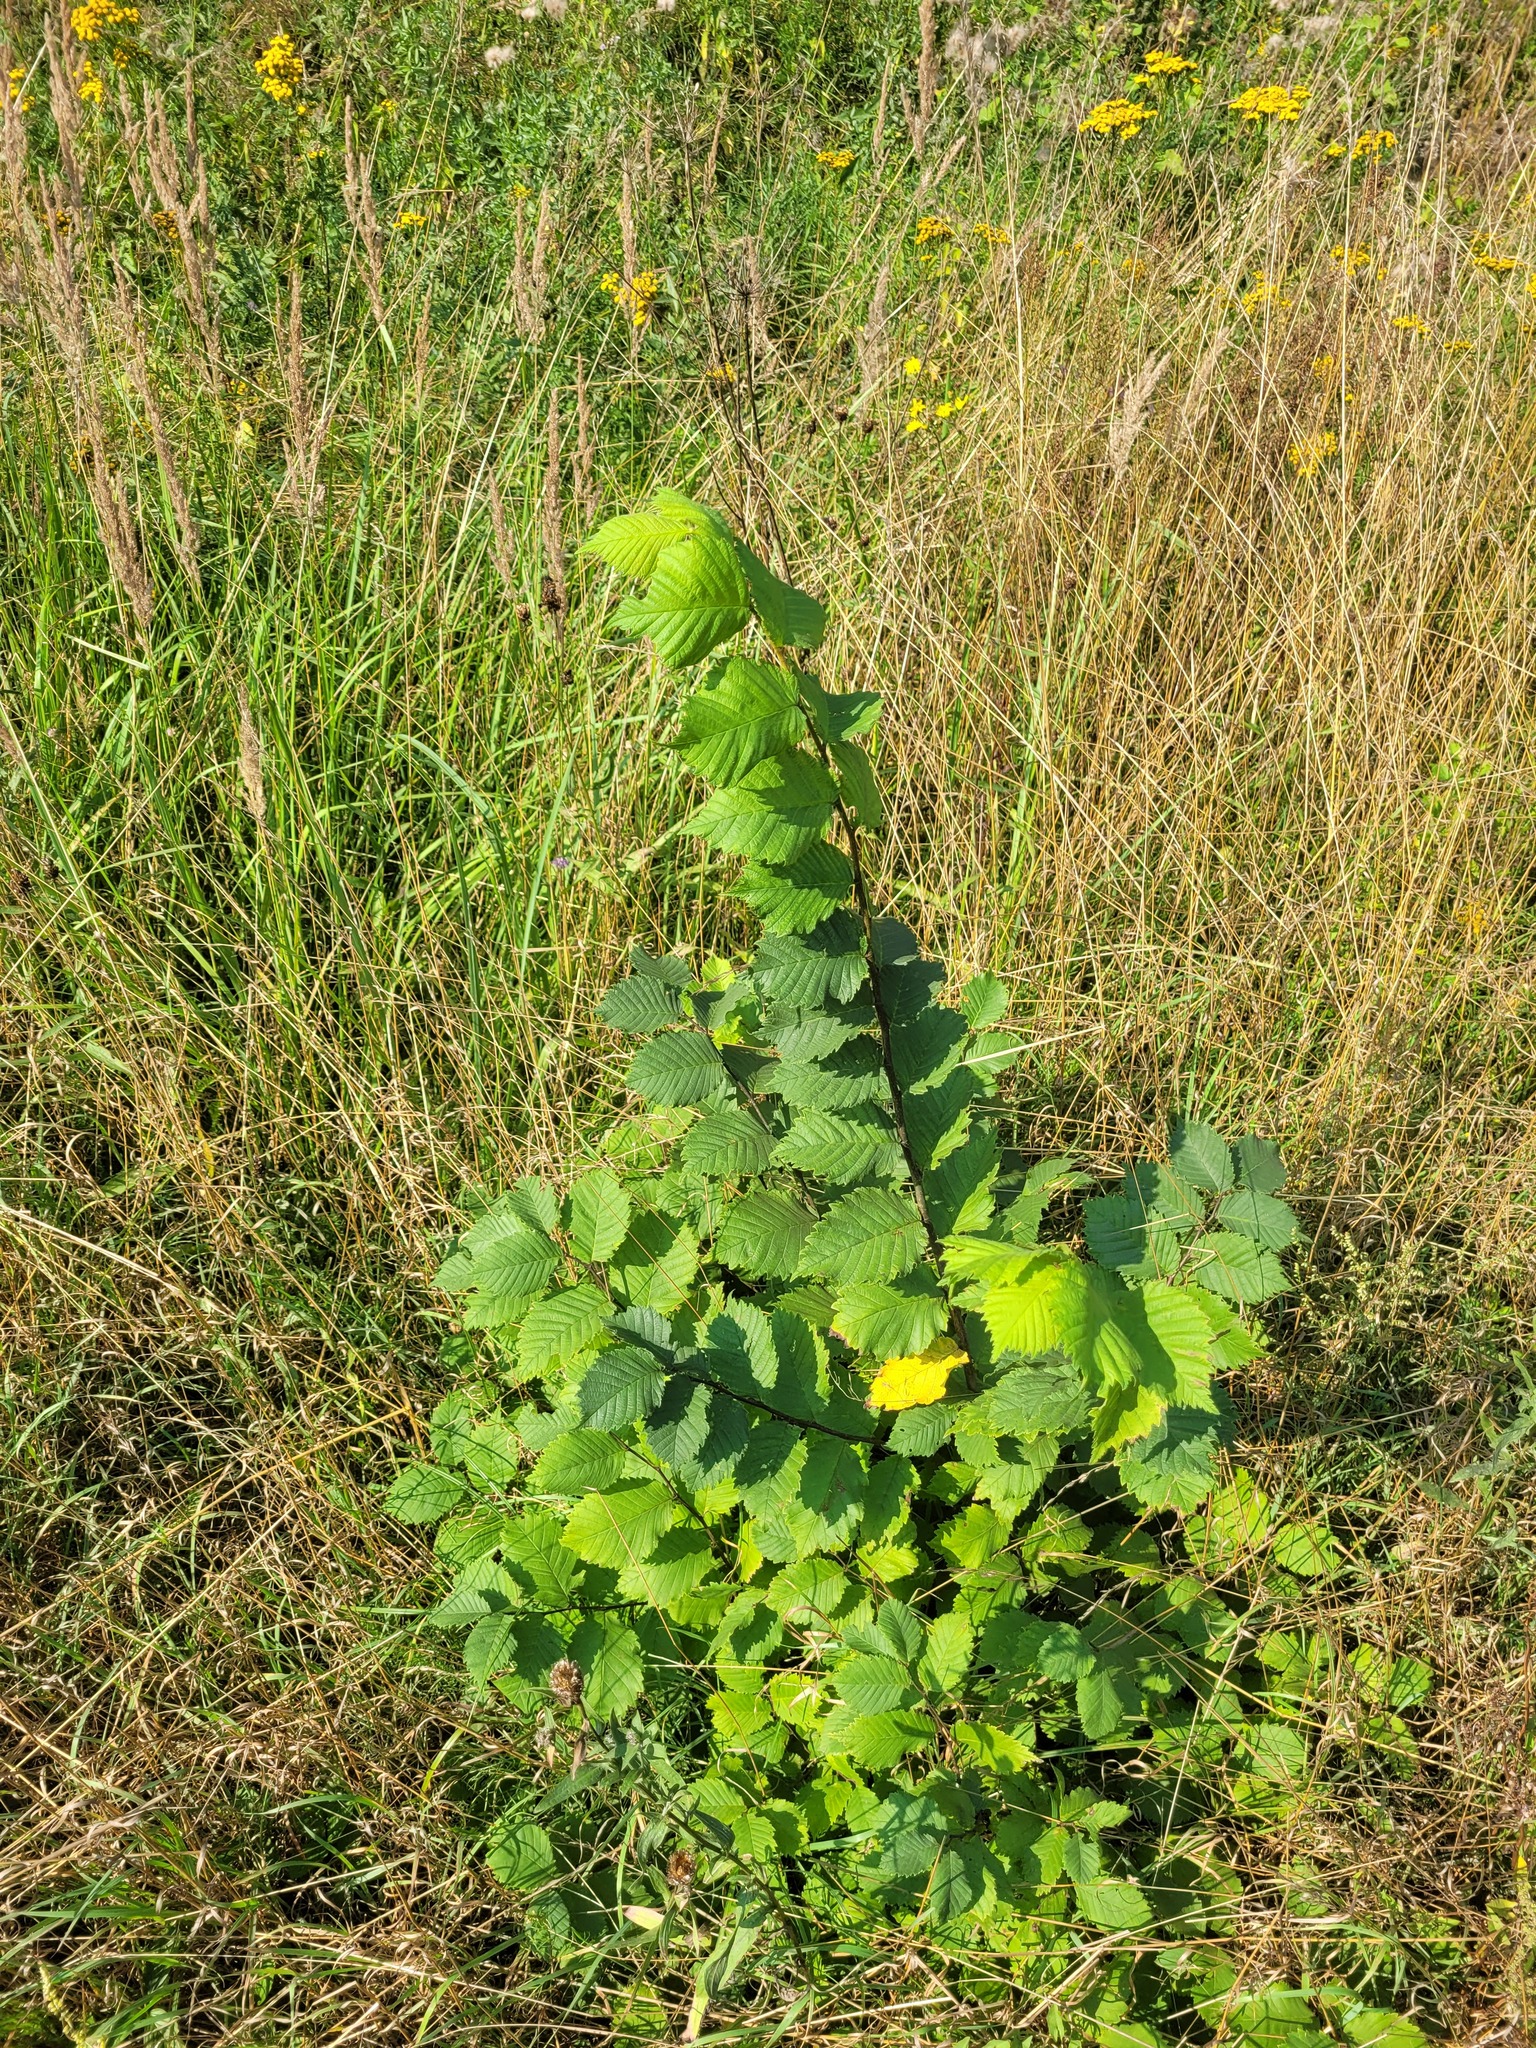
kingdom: Plantae
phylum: Tracheophyta
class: Magnoliopsida
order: Rosales
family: Ulmaceae
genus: Ulmus
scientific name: Ulmus laevis
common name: European white-elm
